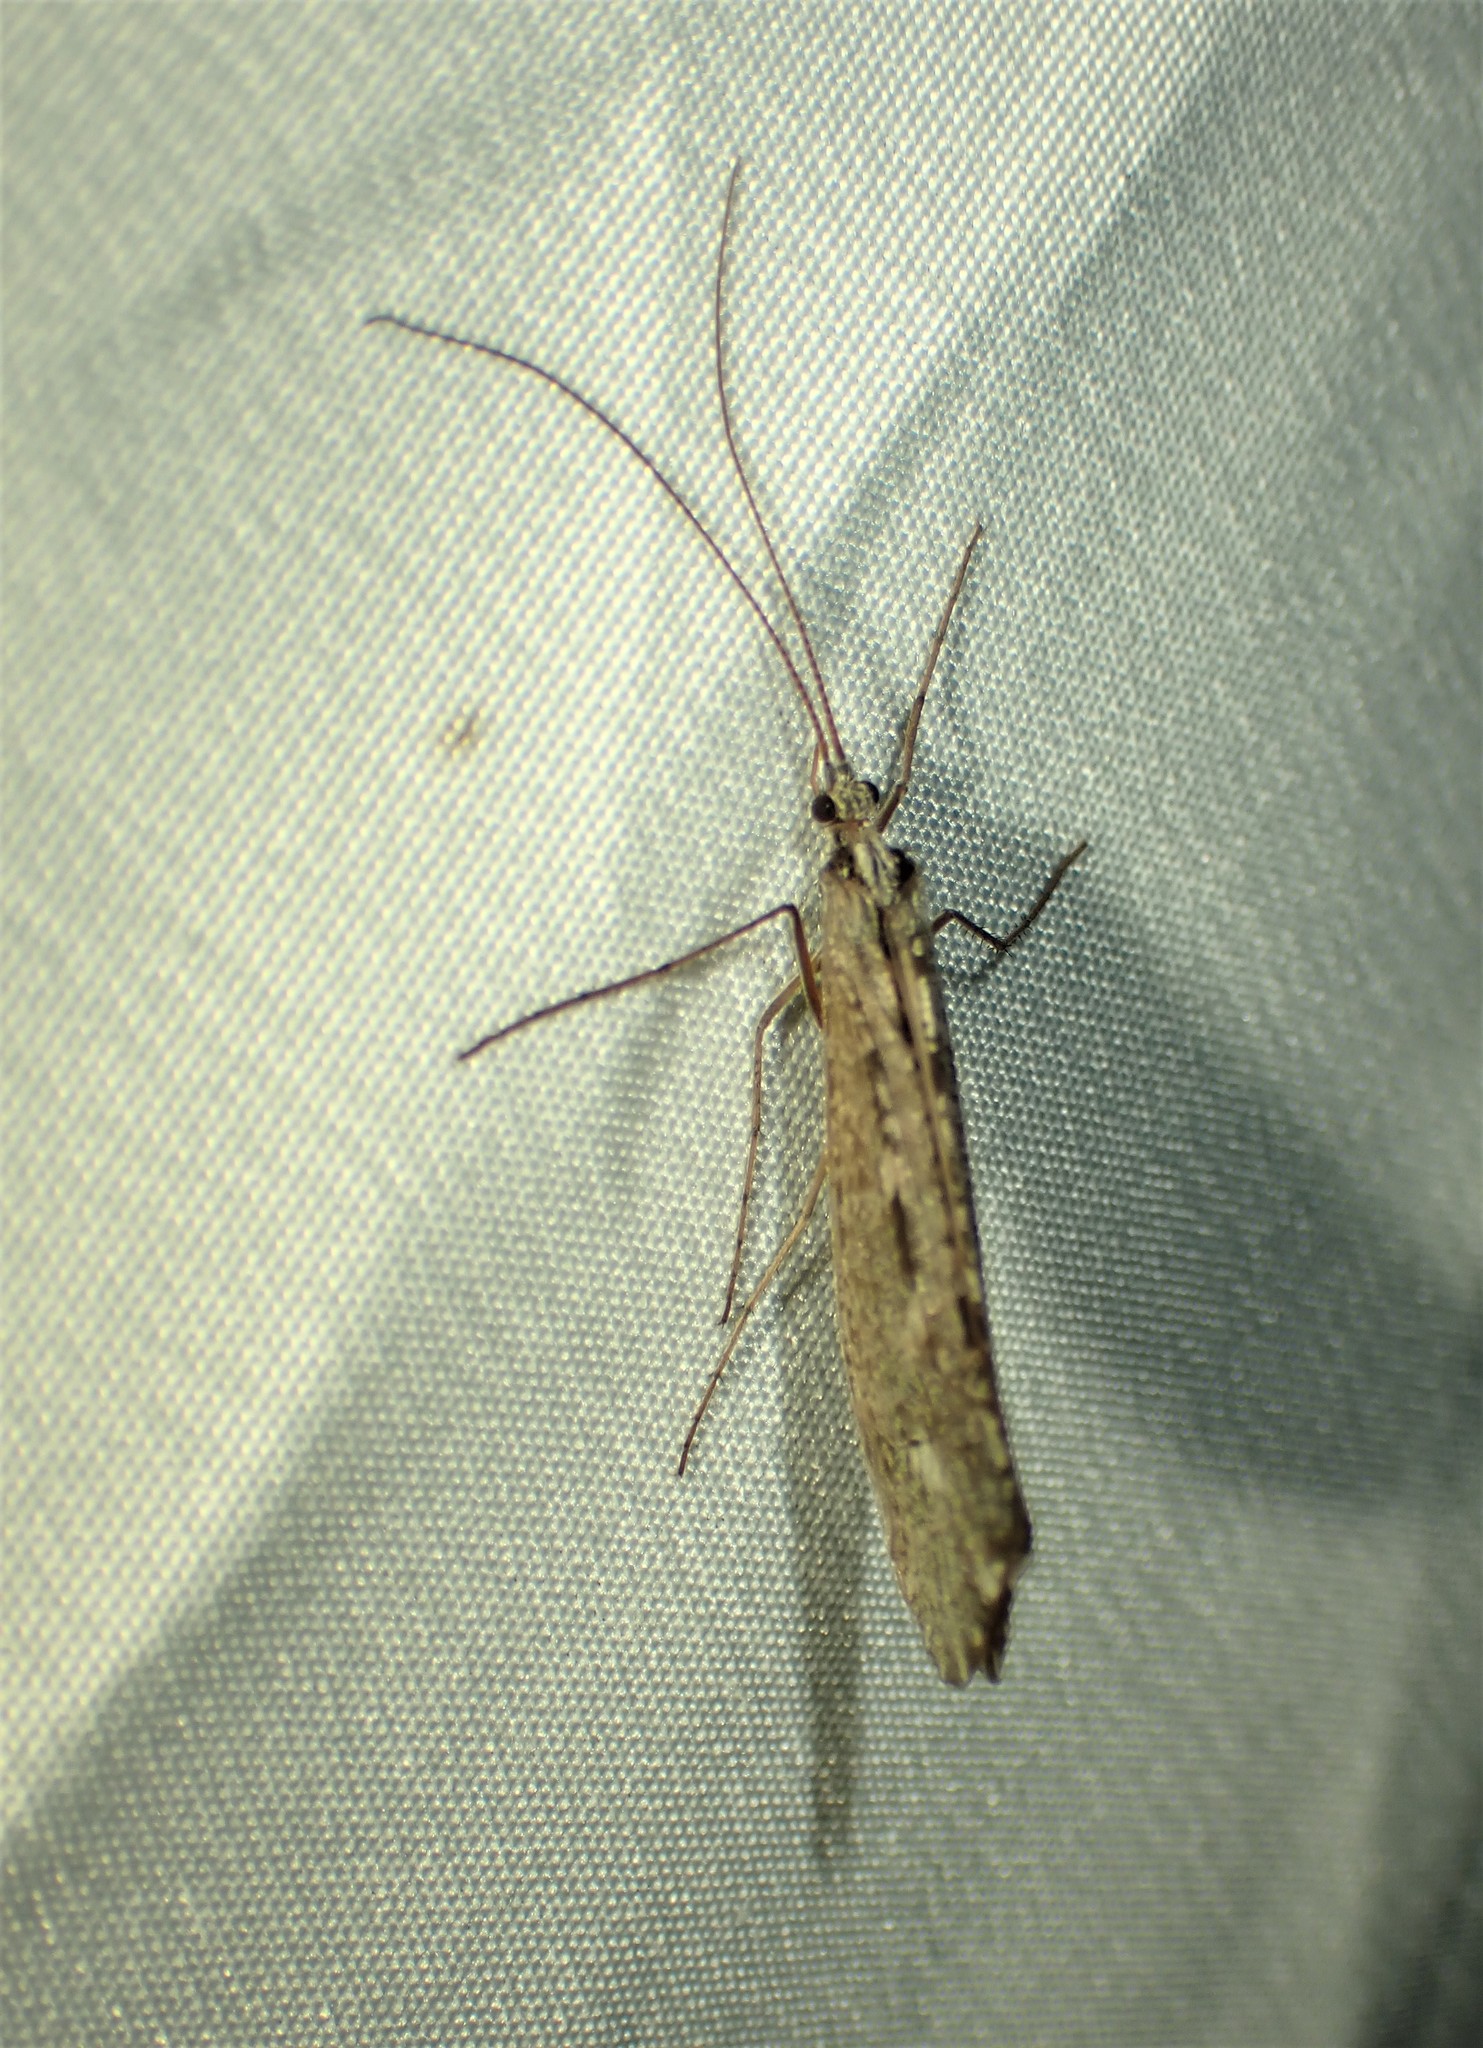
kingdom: Animalia
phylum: Arthropoda
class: Insecta
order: Trichoptera
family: Limnephilidae
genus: Glyphopsyche
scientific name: Glyphopsyche irrorata
